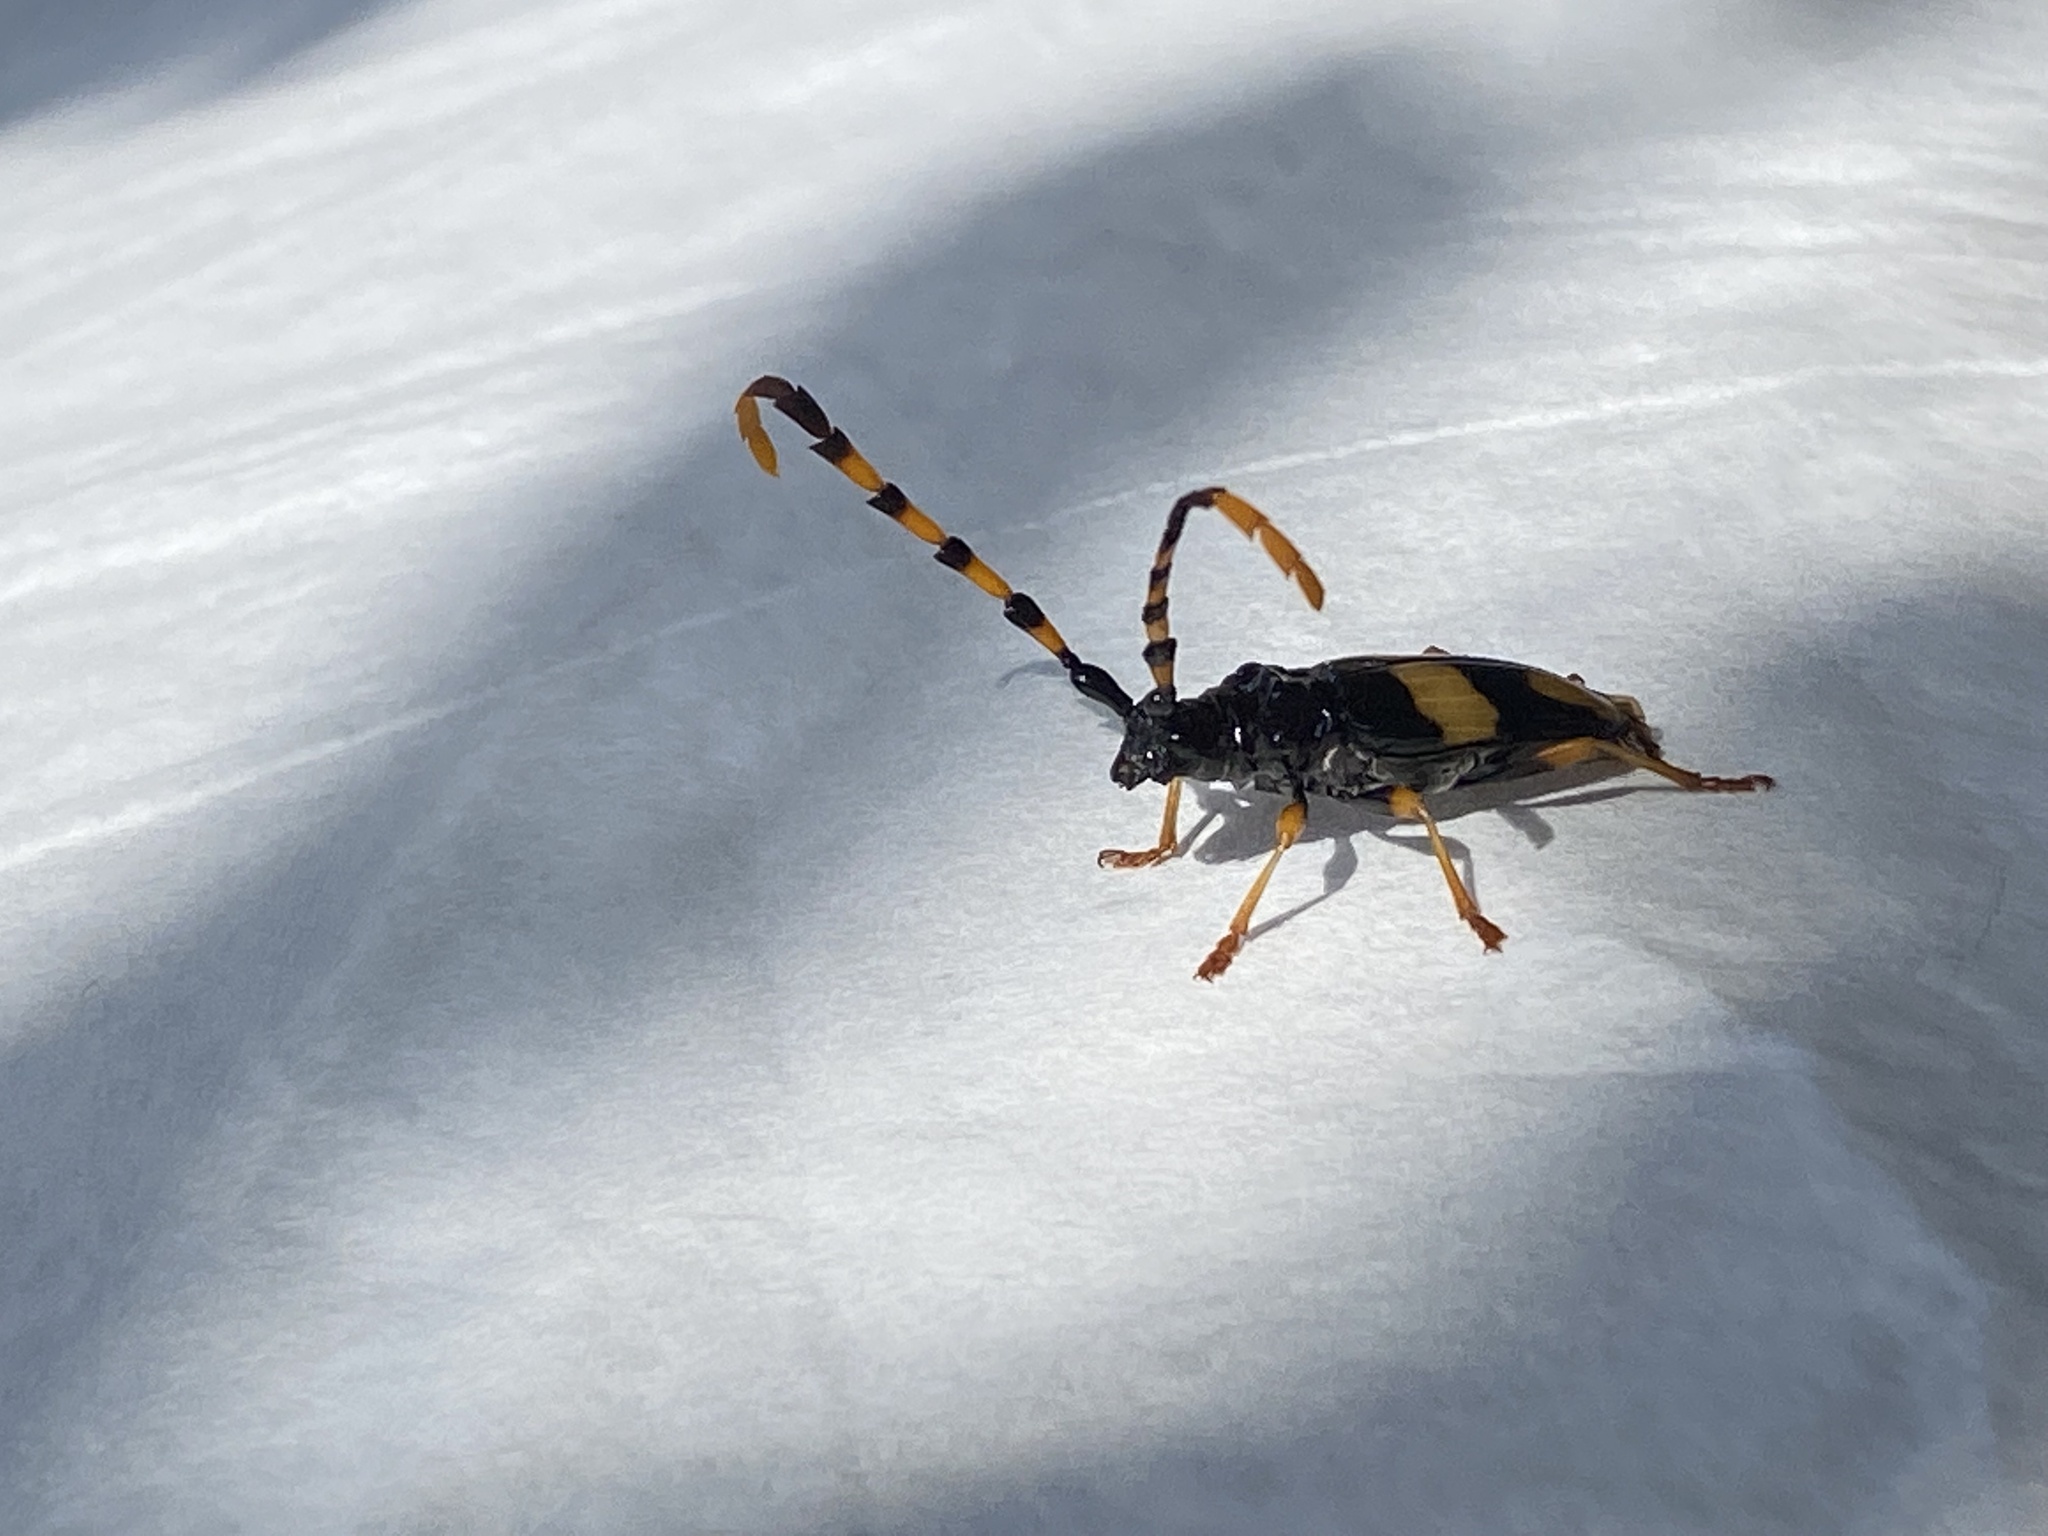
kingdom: Animalia
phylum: Arthropoda
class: Insecta
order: Coleoptera
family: Cerambycidae
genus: Trachyderes
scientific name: Trachyderes mandibularis
